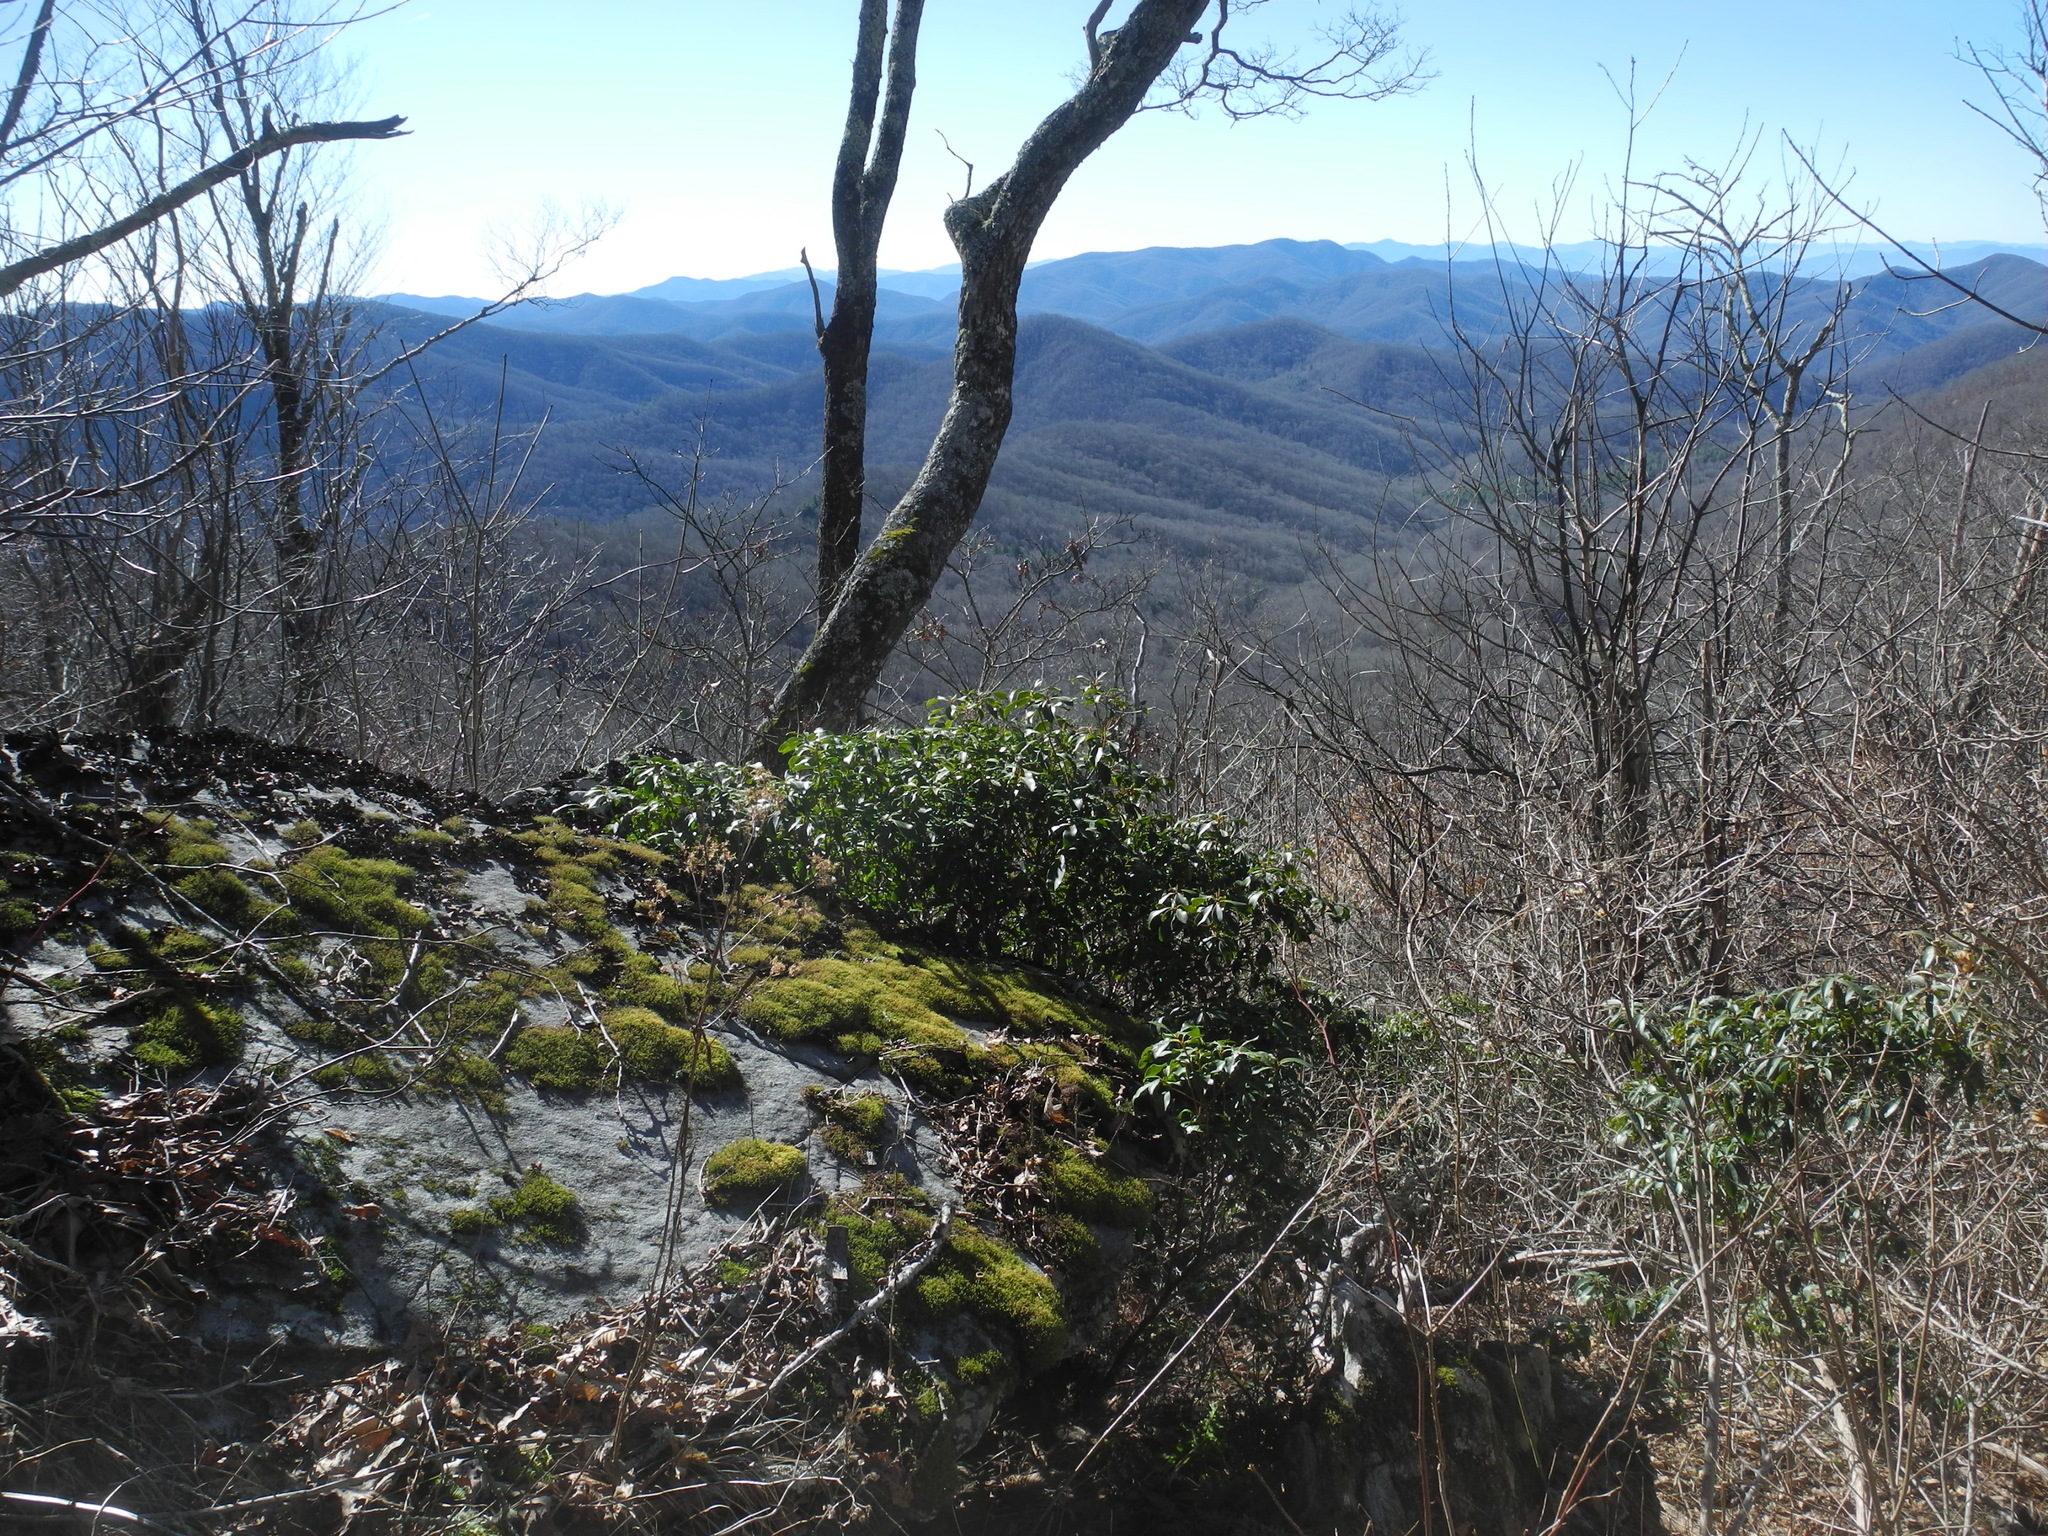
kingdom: Fungi
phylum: Ascomycota
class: Lecanoromycetes
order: Umbilicariales
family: Umbilicariaceae
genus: Umbilicaria
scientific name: Umbilicaria mammulata
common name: Smooth rock tripe
